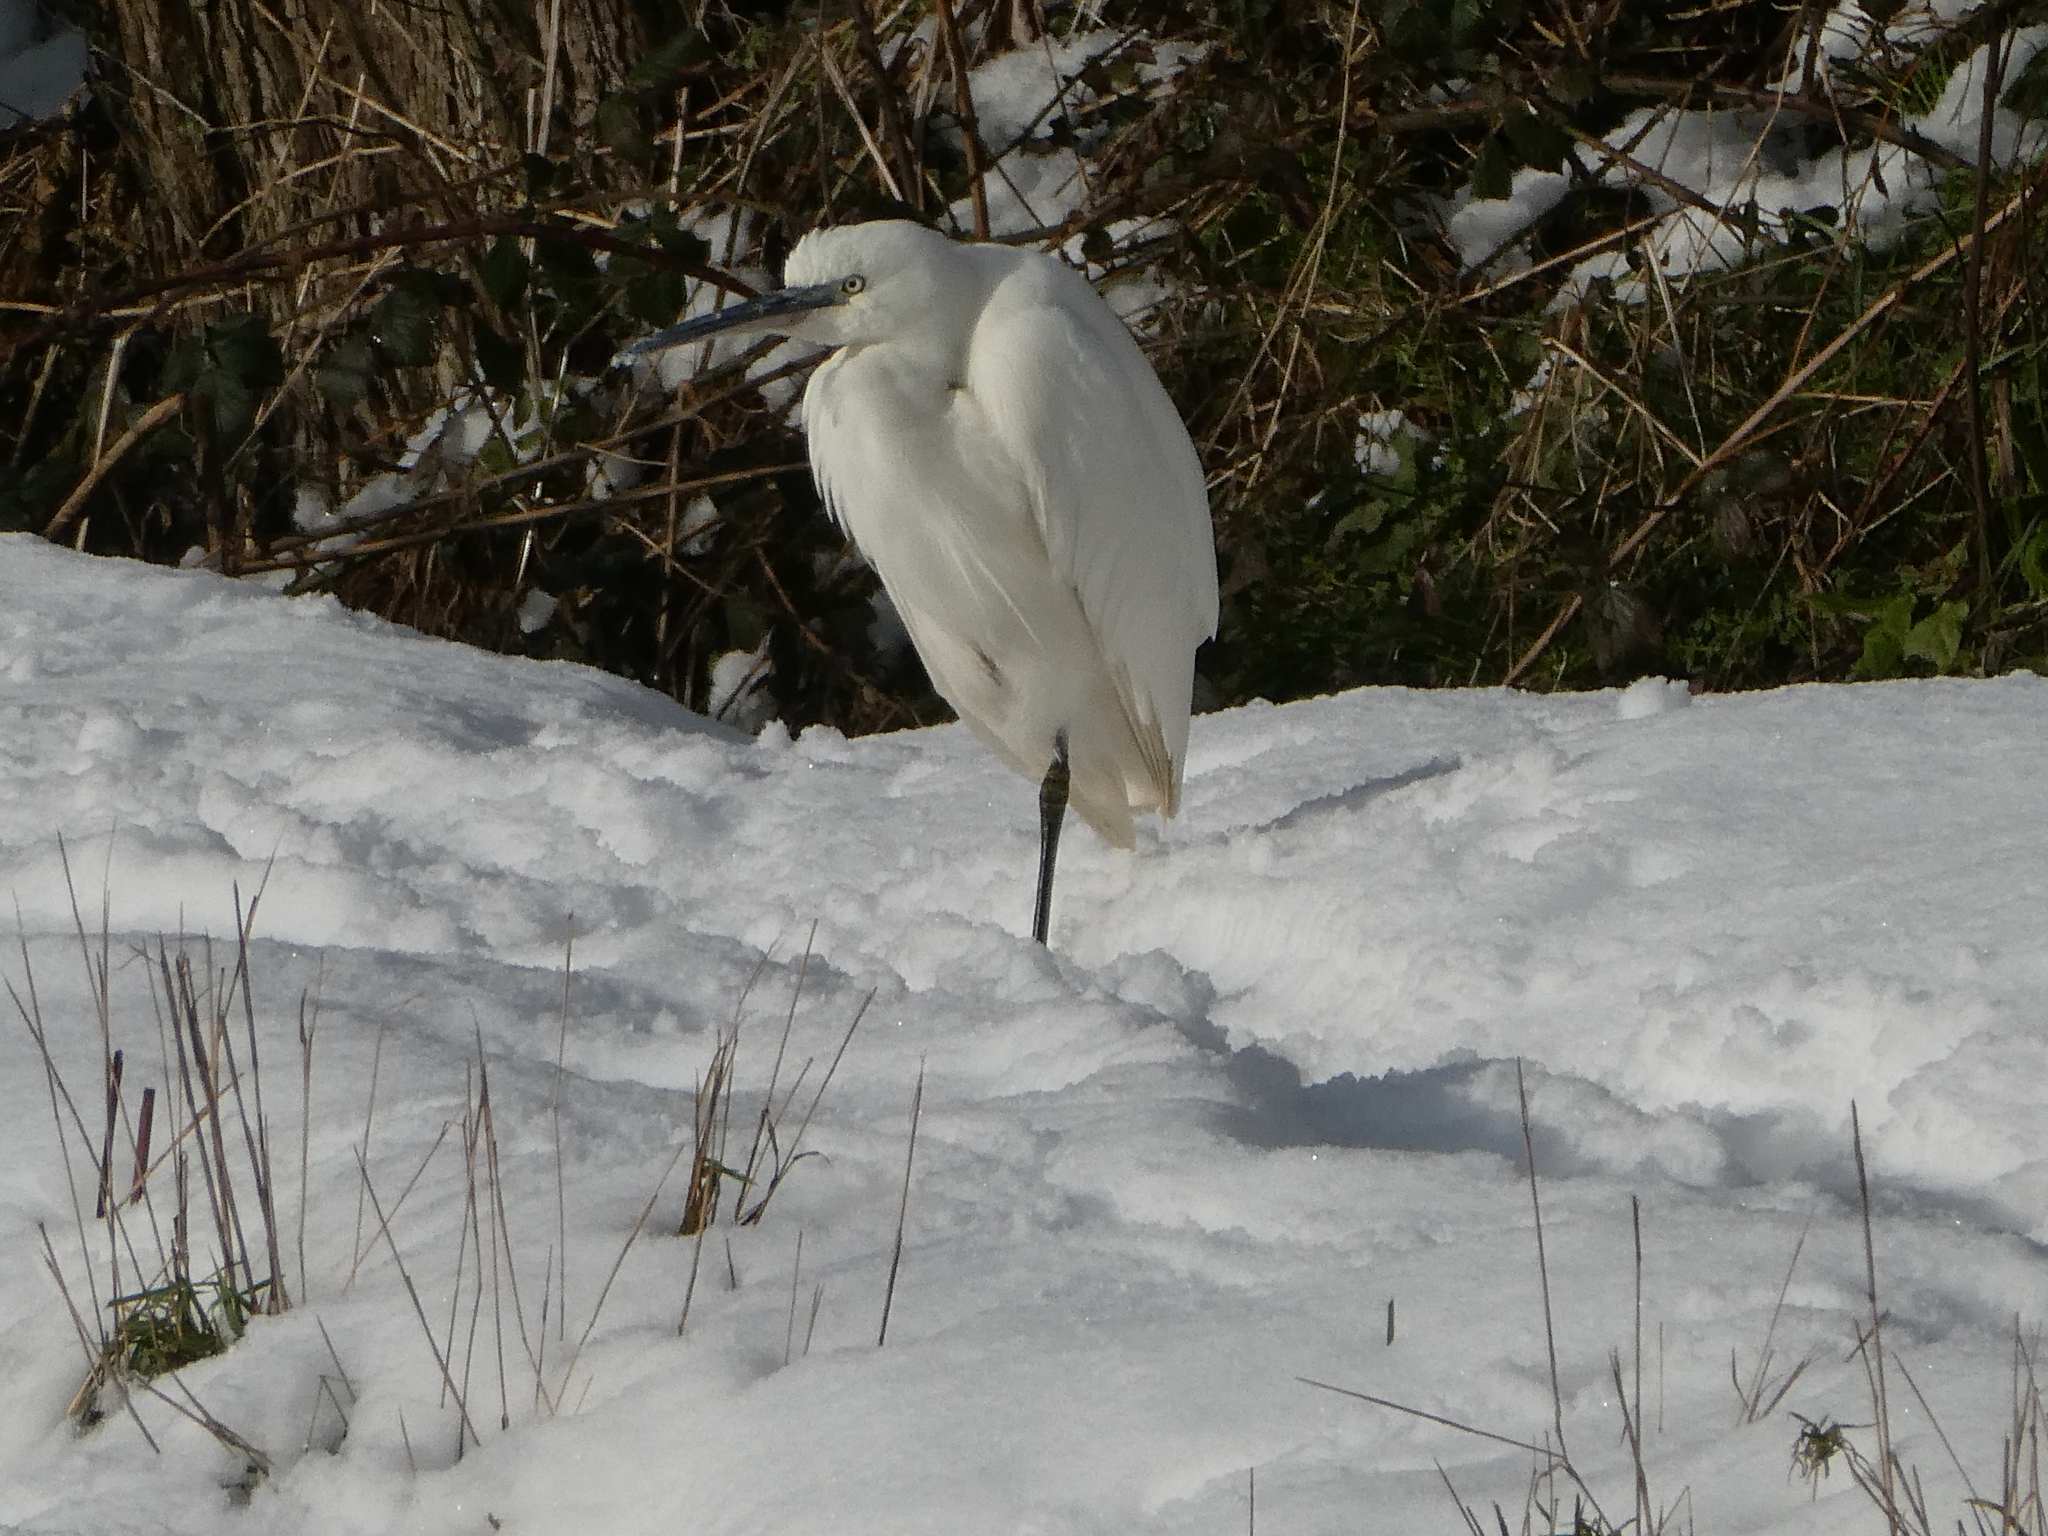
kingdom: Animalia
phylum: Chordata
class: Aves
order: Pelecaniformes
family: Ardeidae
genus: Egretta
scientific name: Egretta garzetta
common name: Little egret
